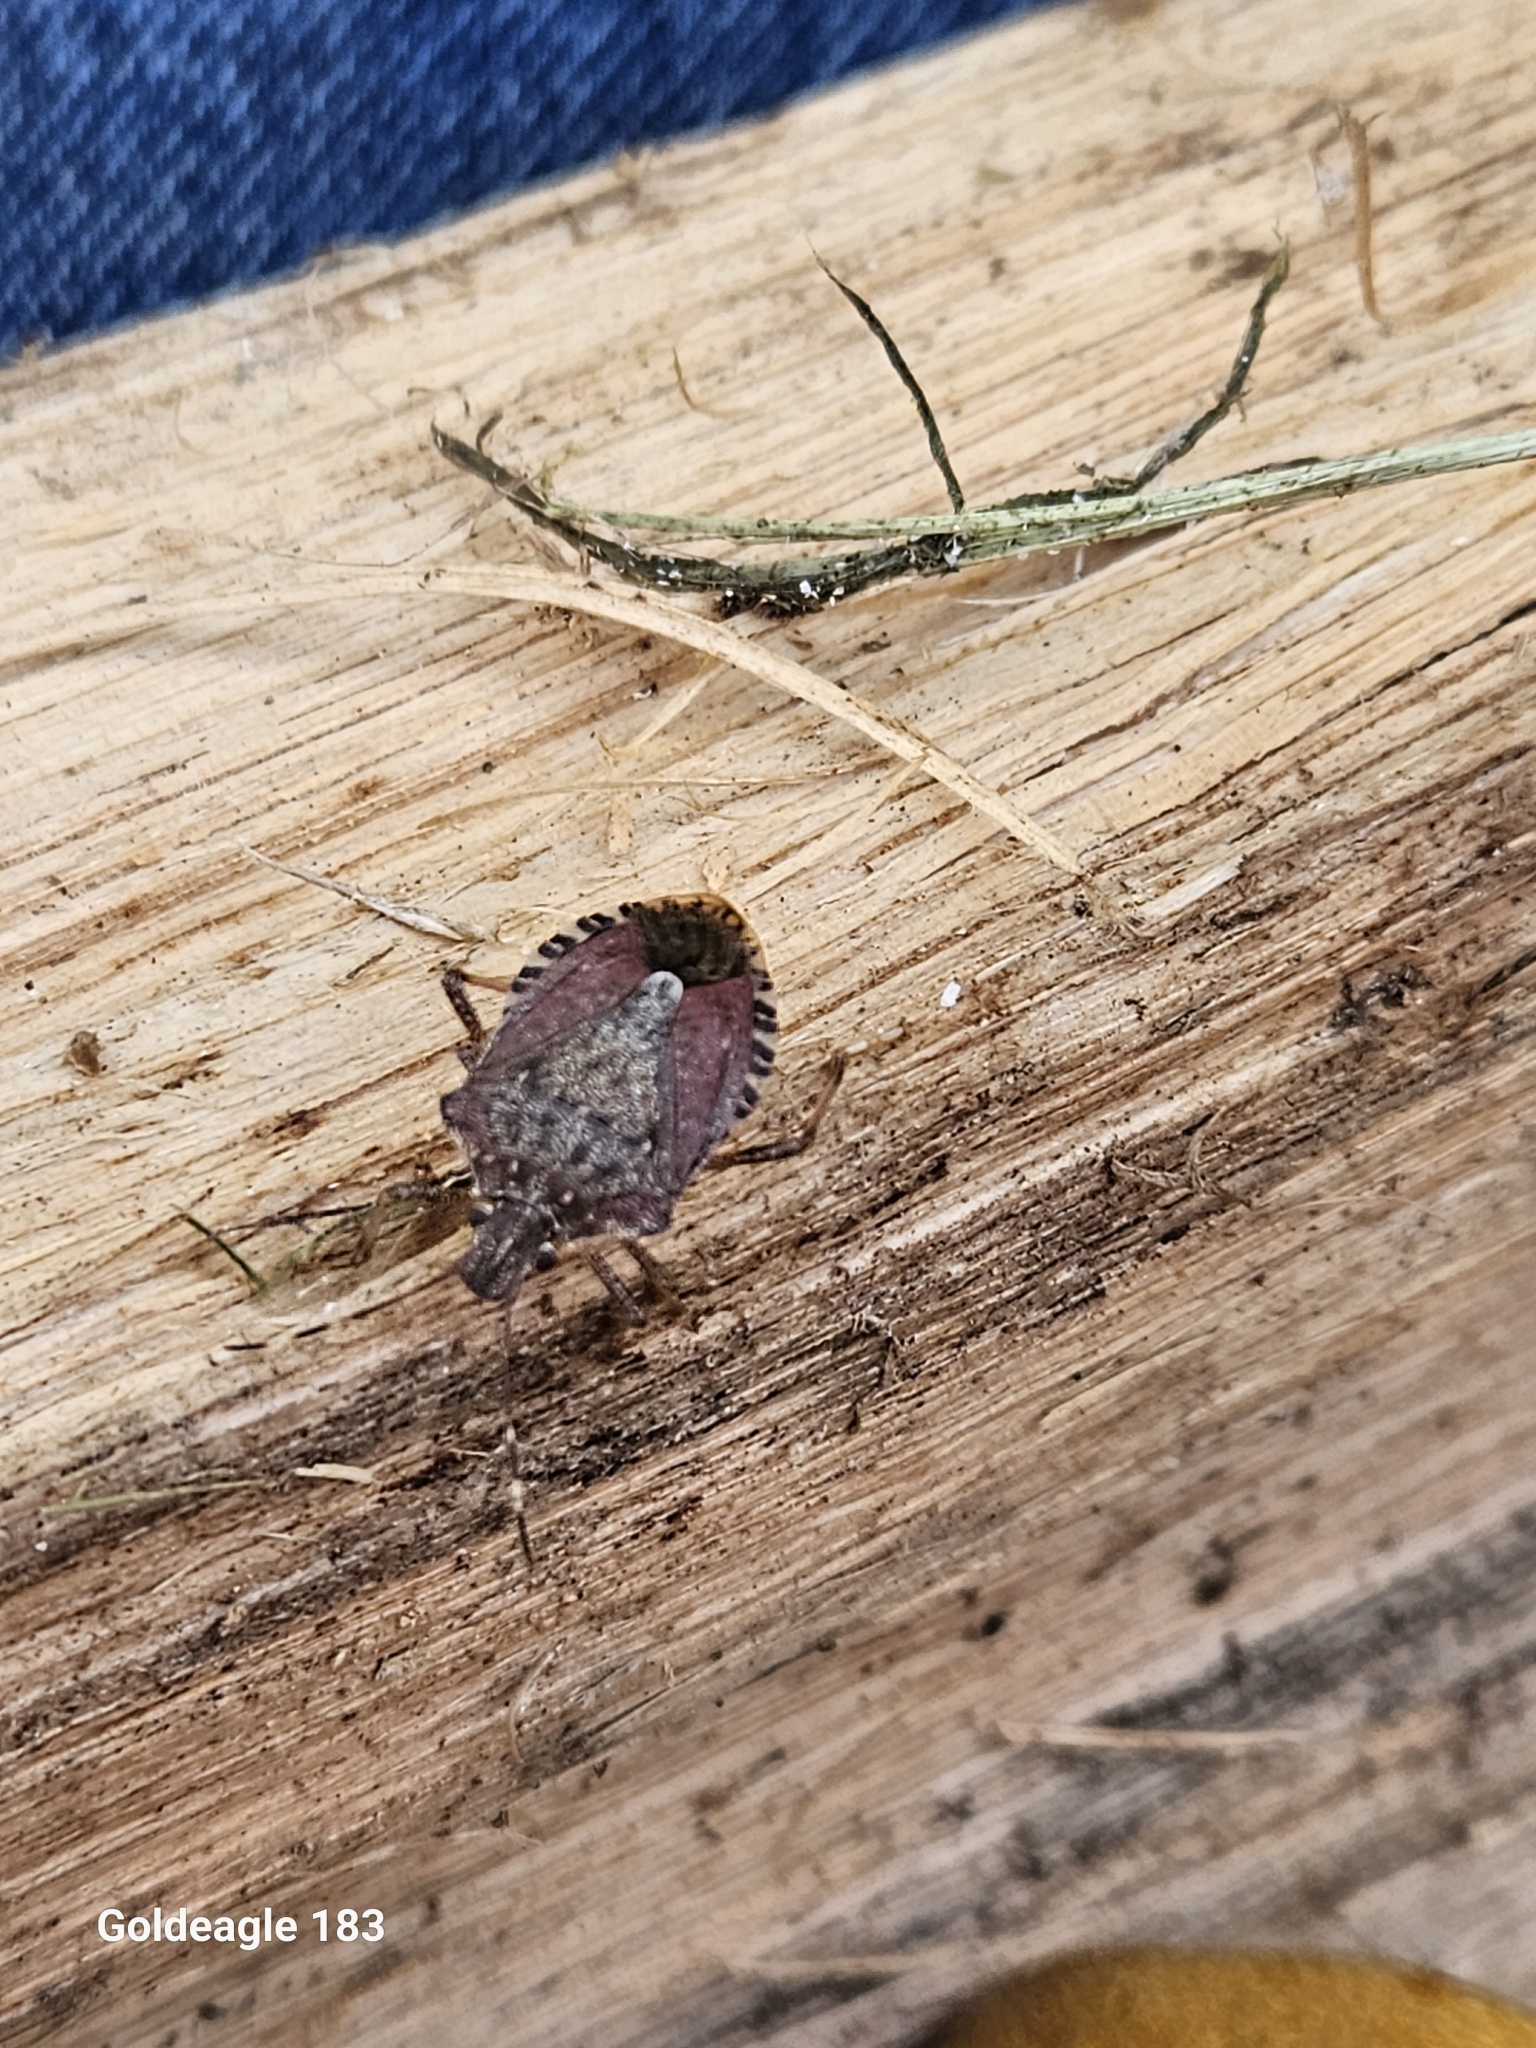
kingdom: Animalia
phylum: Arthropoda
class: Insecta
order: Hemiptera
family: Pentatomidae
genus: Halyomorpha
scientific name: Halyomorpha halys
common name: Brown marmorated stink bug
